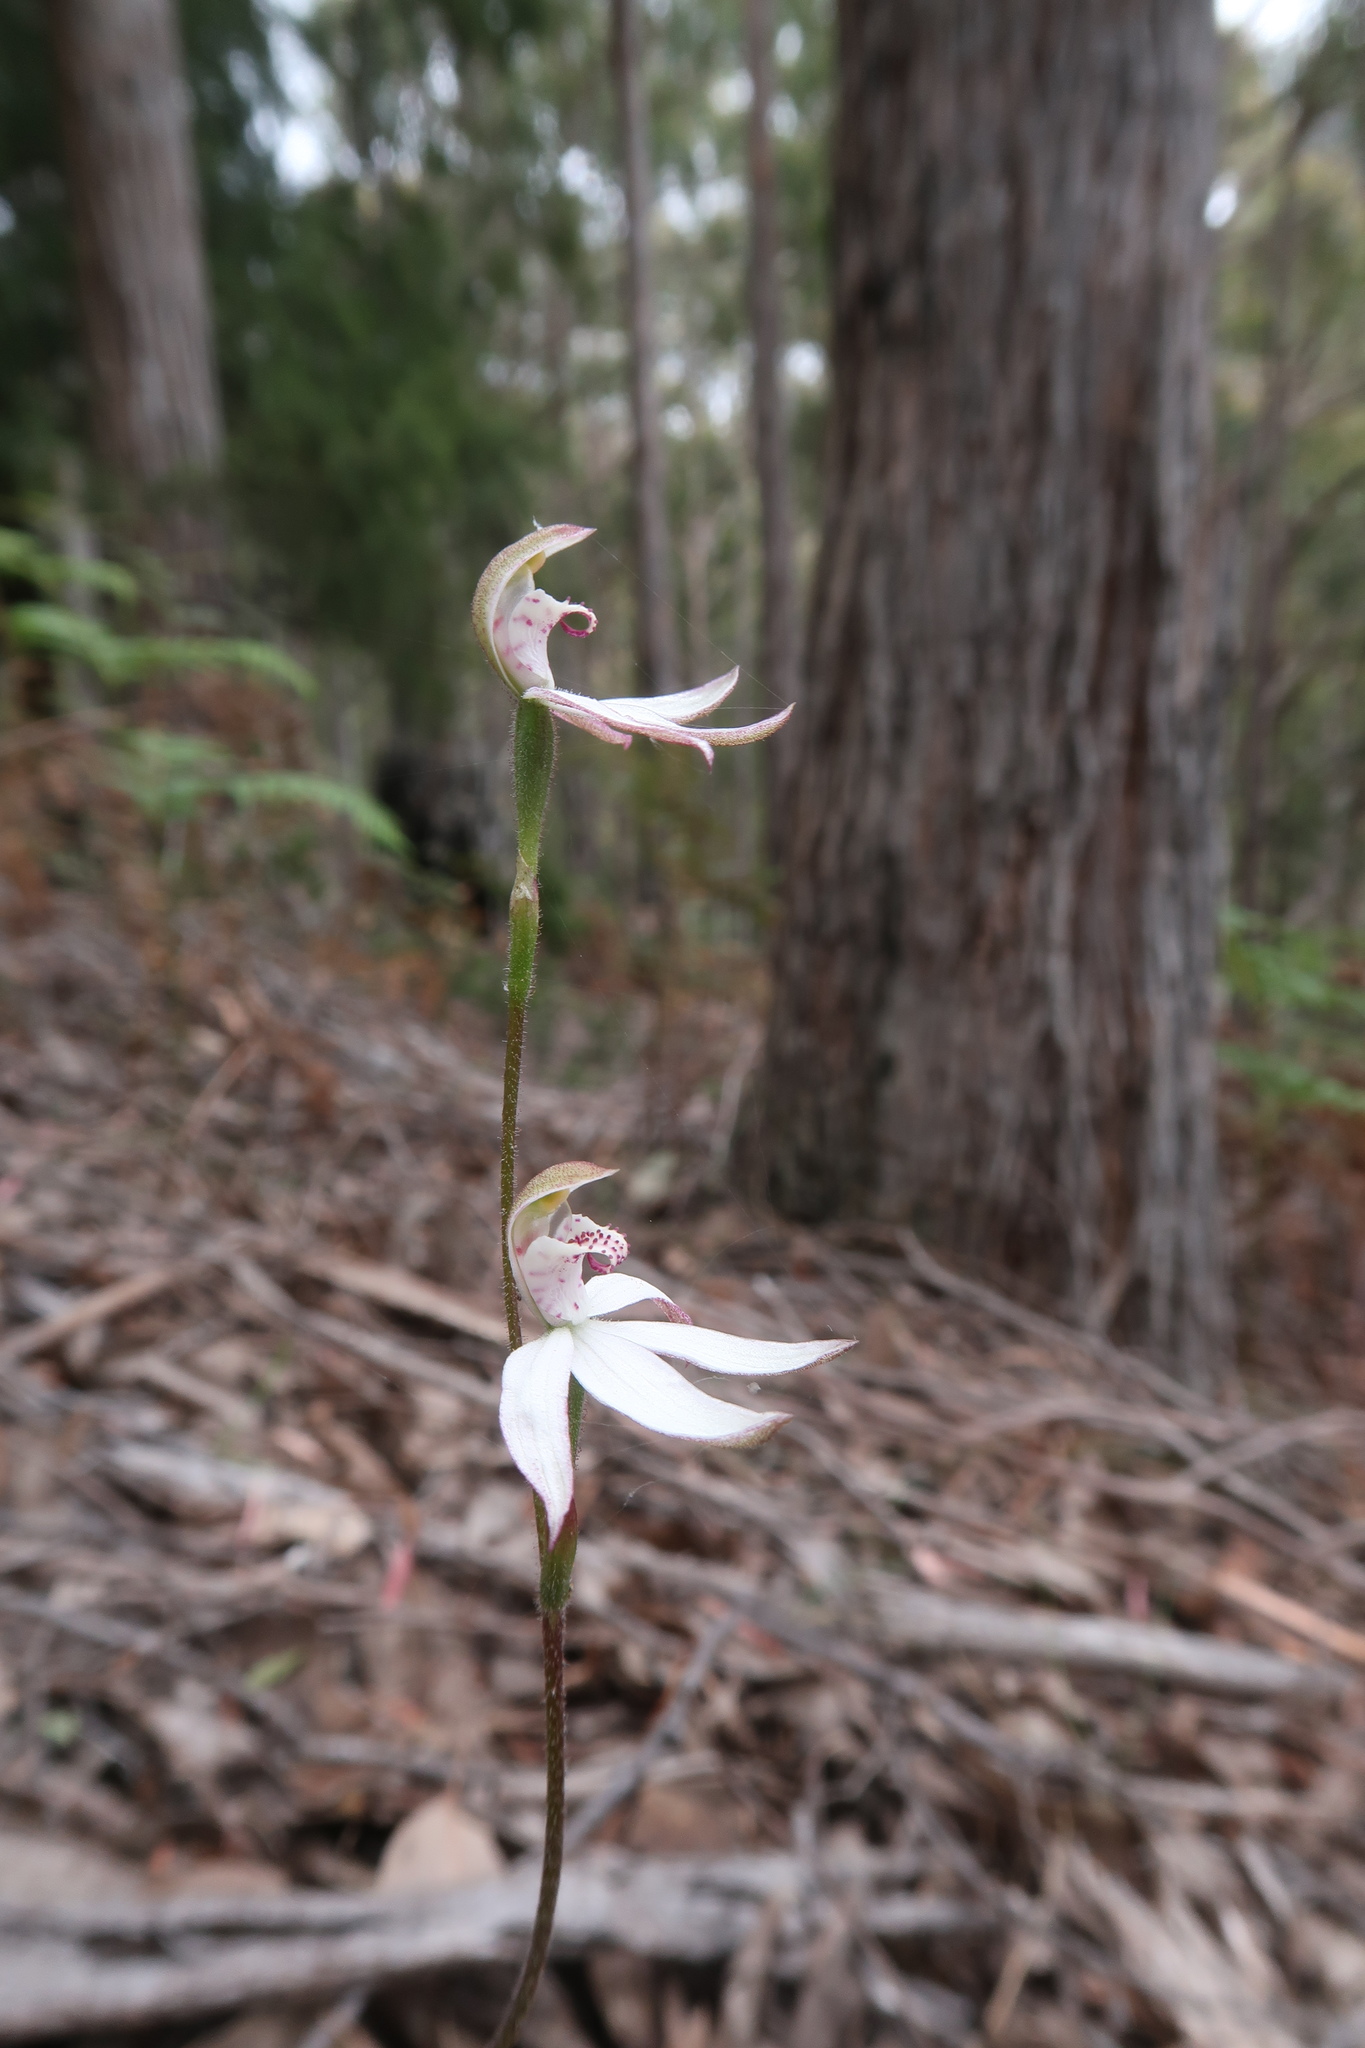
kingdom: Plantae
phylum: Tracheophyta
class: Liliopsida
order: Asparagales
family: Orchidaceae
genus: Caladenia
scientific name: Caladenia gracilis
